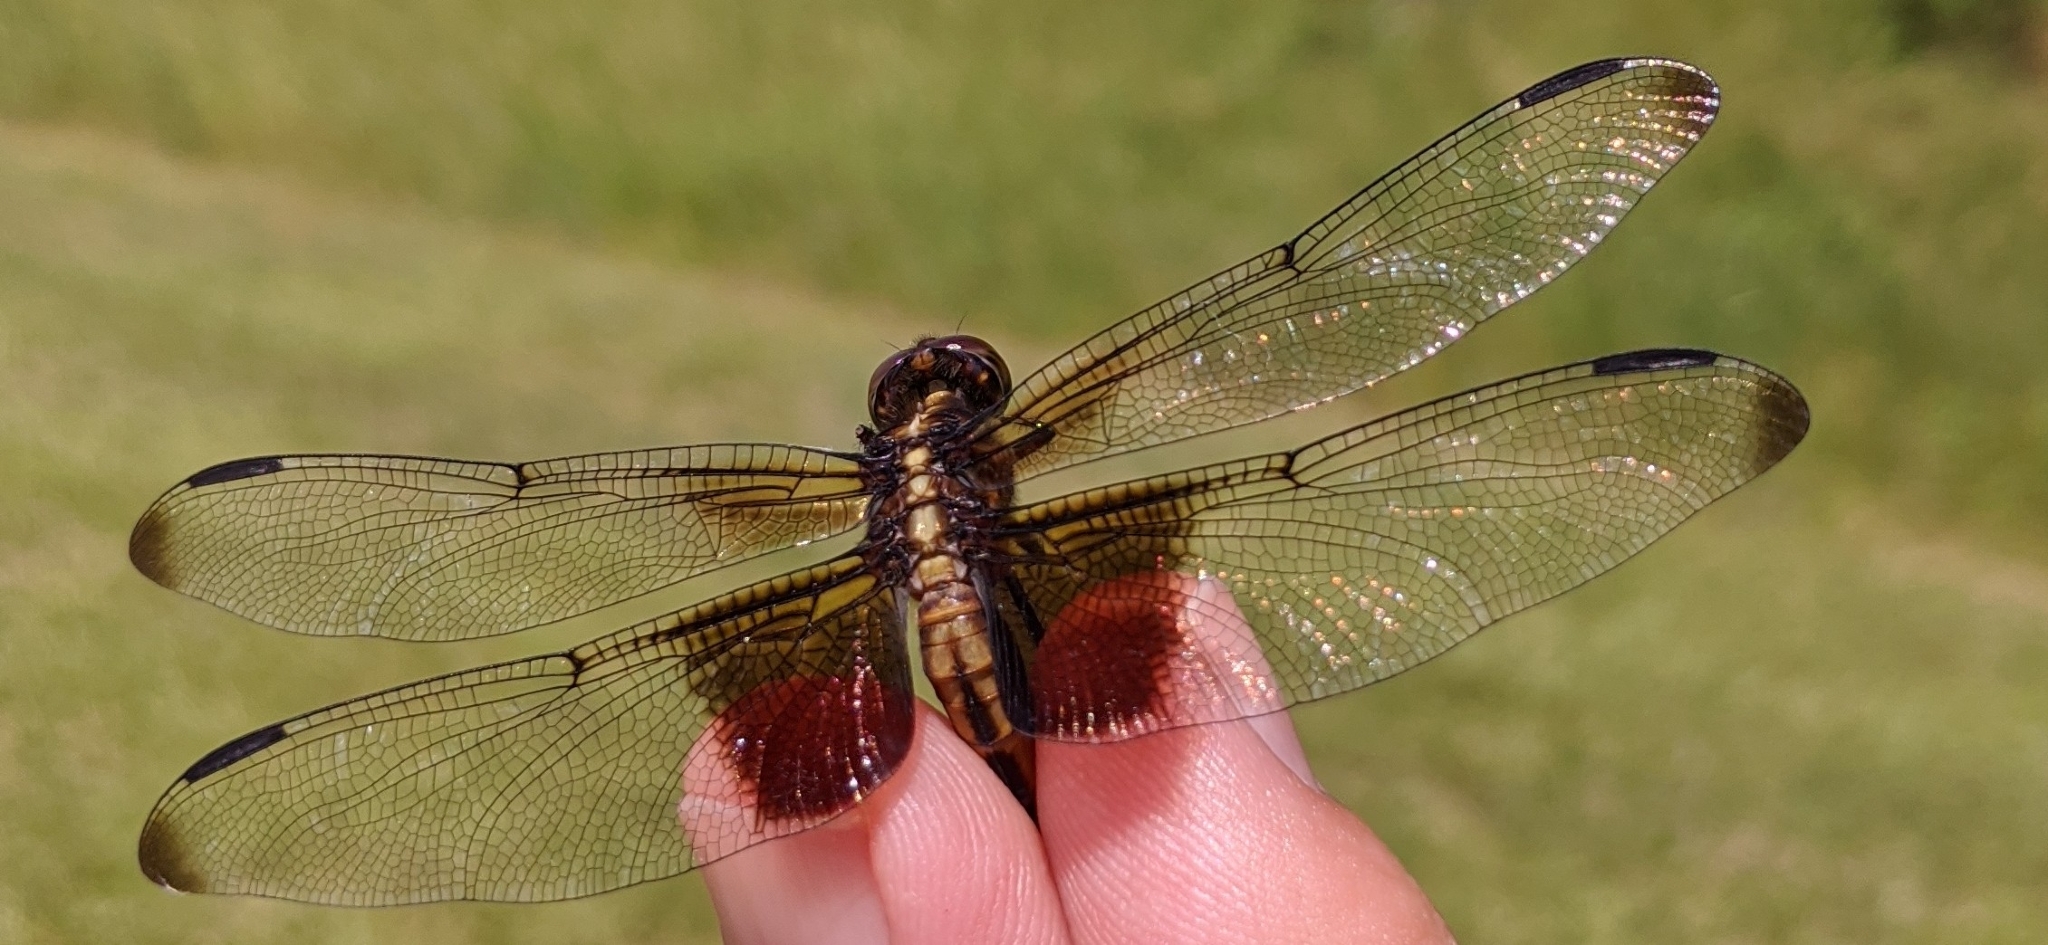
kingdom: Animalia
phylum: Arthropoda
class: Insecta
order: Odonata
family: Libellulidae
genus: Libellula
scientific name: Libellula luctuosa
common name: Widow skimmer
